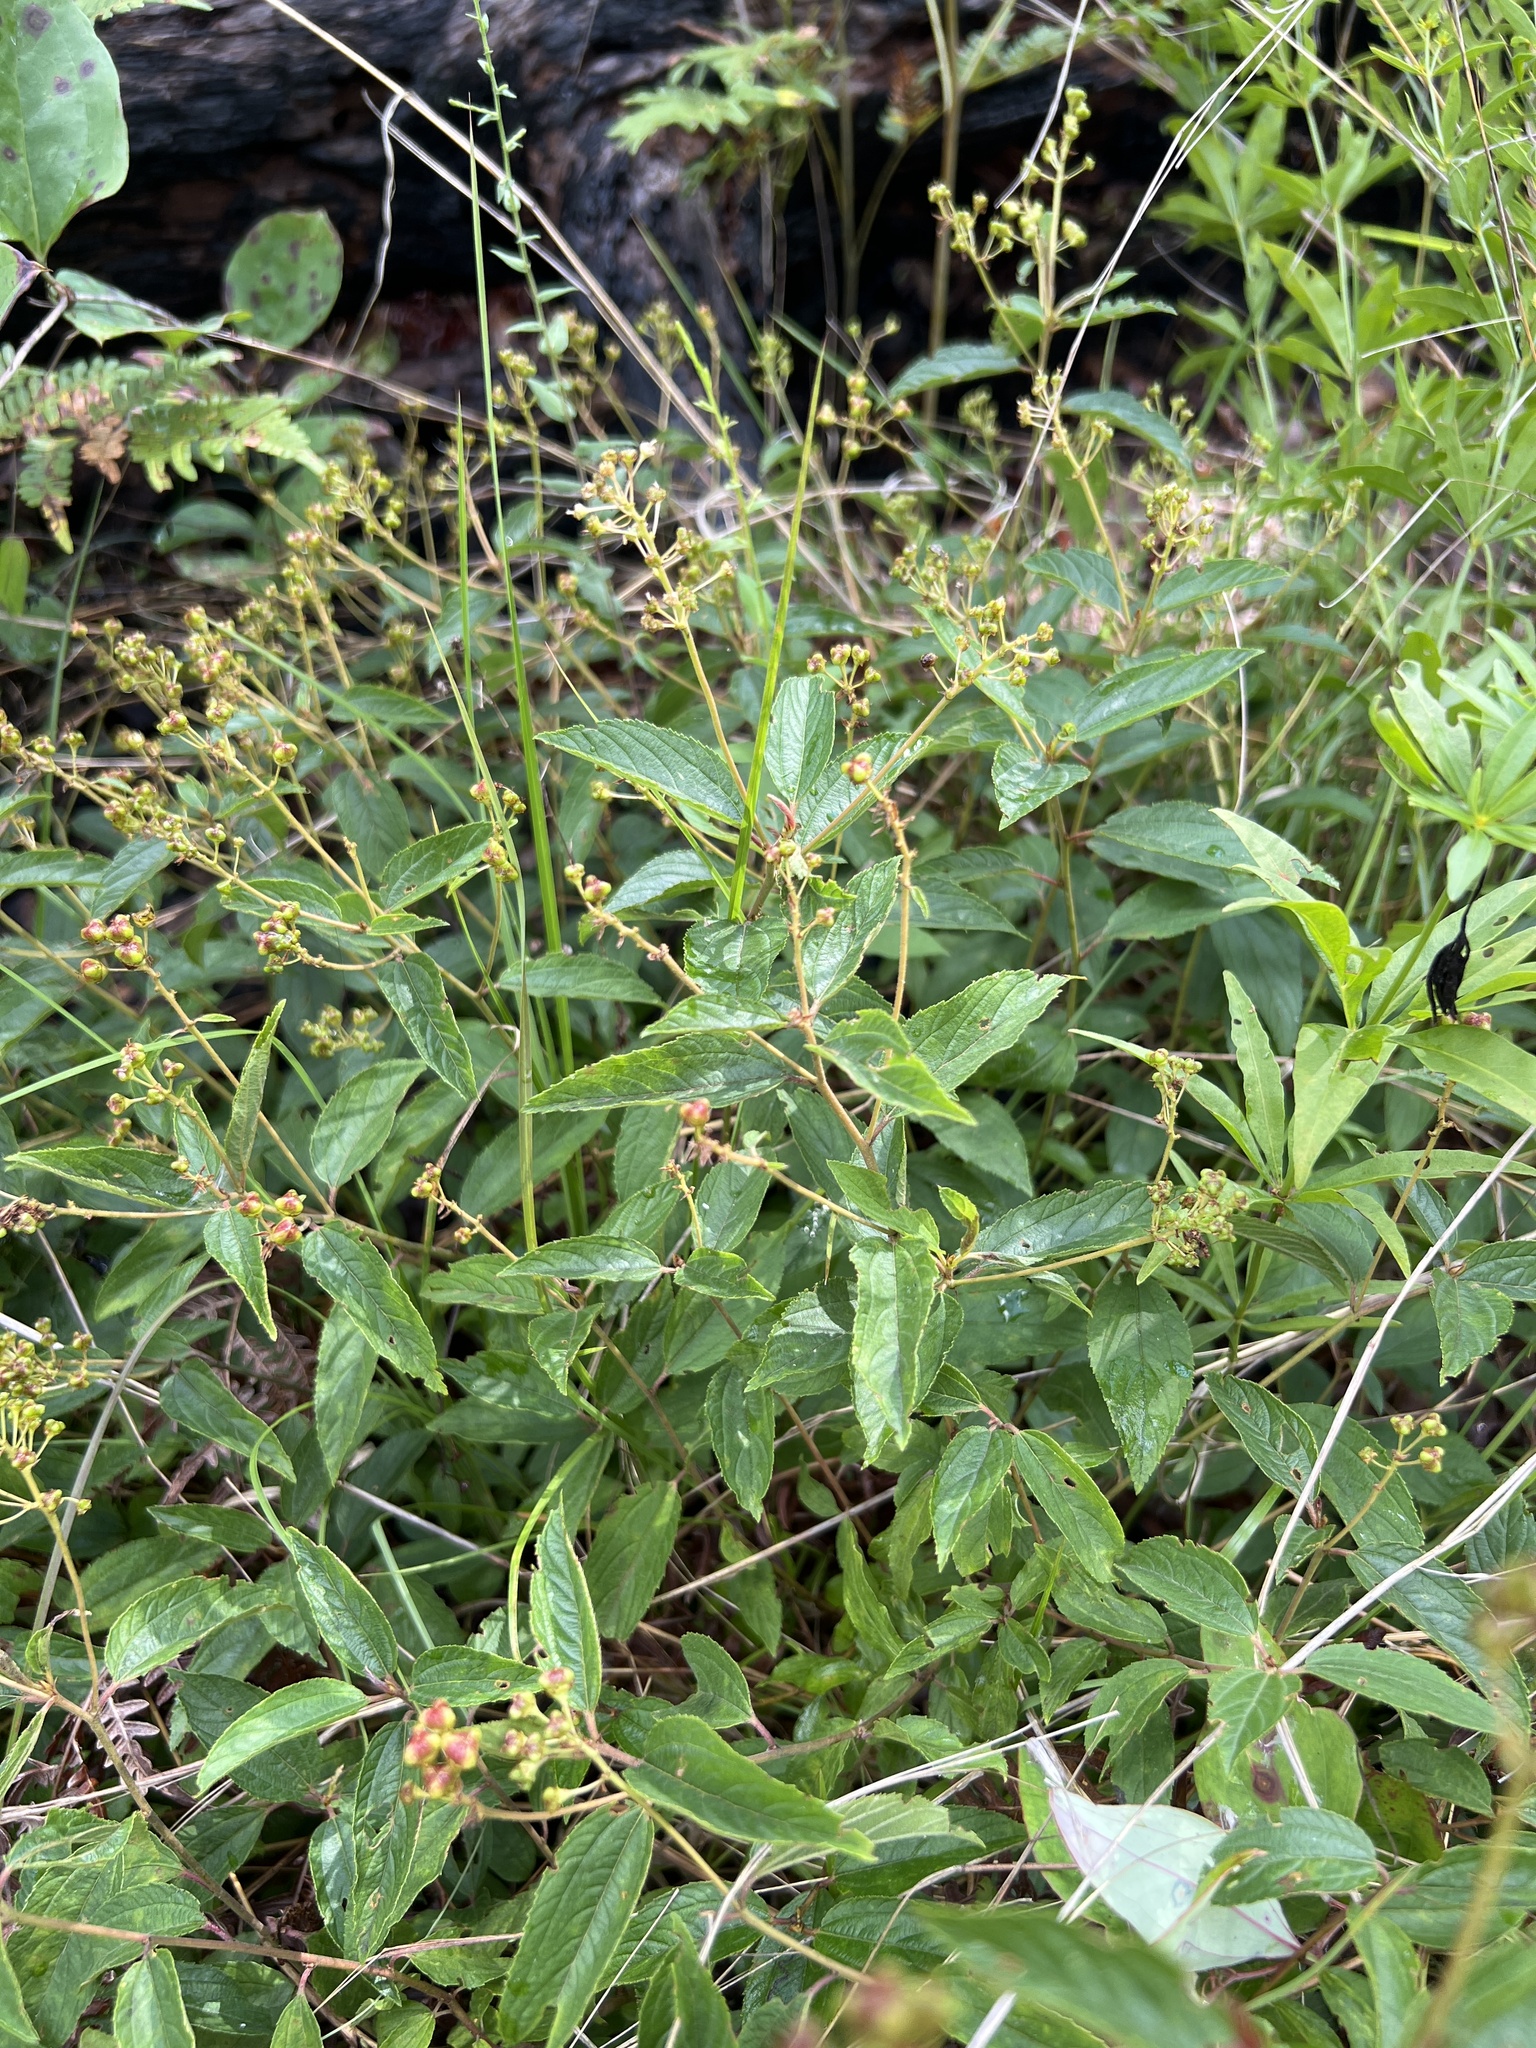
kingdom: Plantae
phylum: Tracheophyta
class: Magnoliopsida
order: Rosales
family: Rhamnaceae
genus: Ceanothus
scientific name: Ceanothus americanus
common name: Redroot
